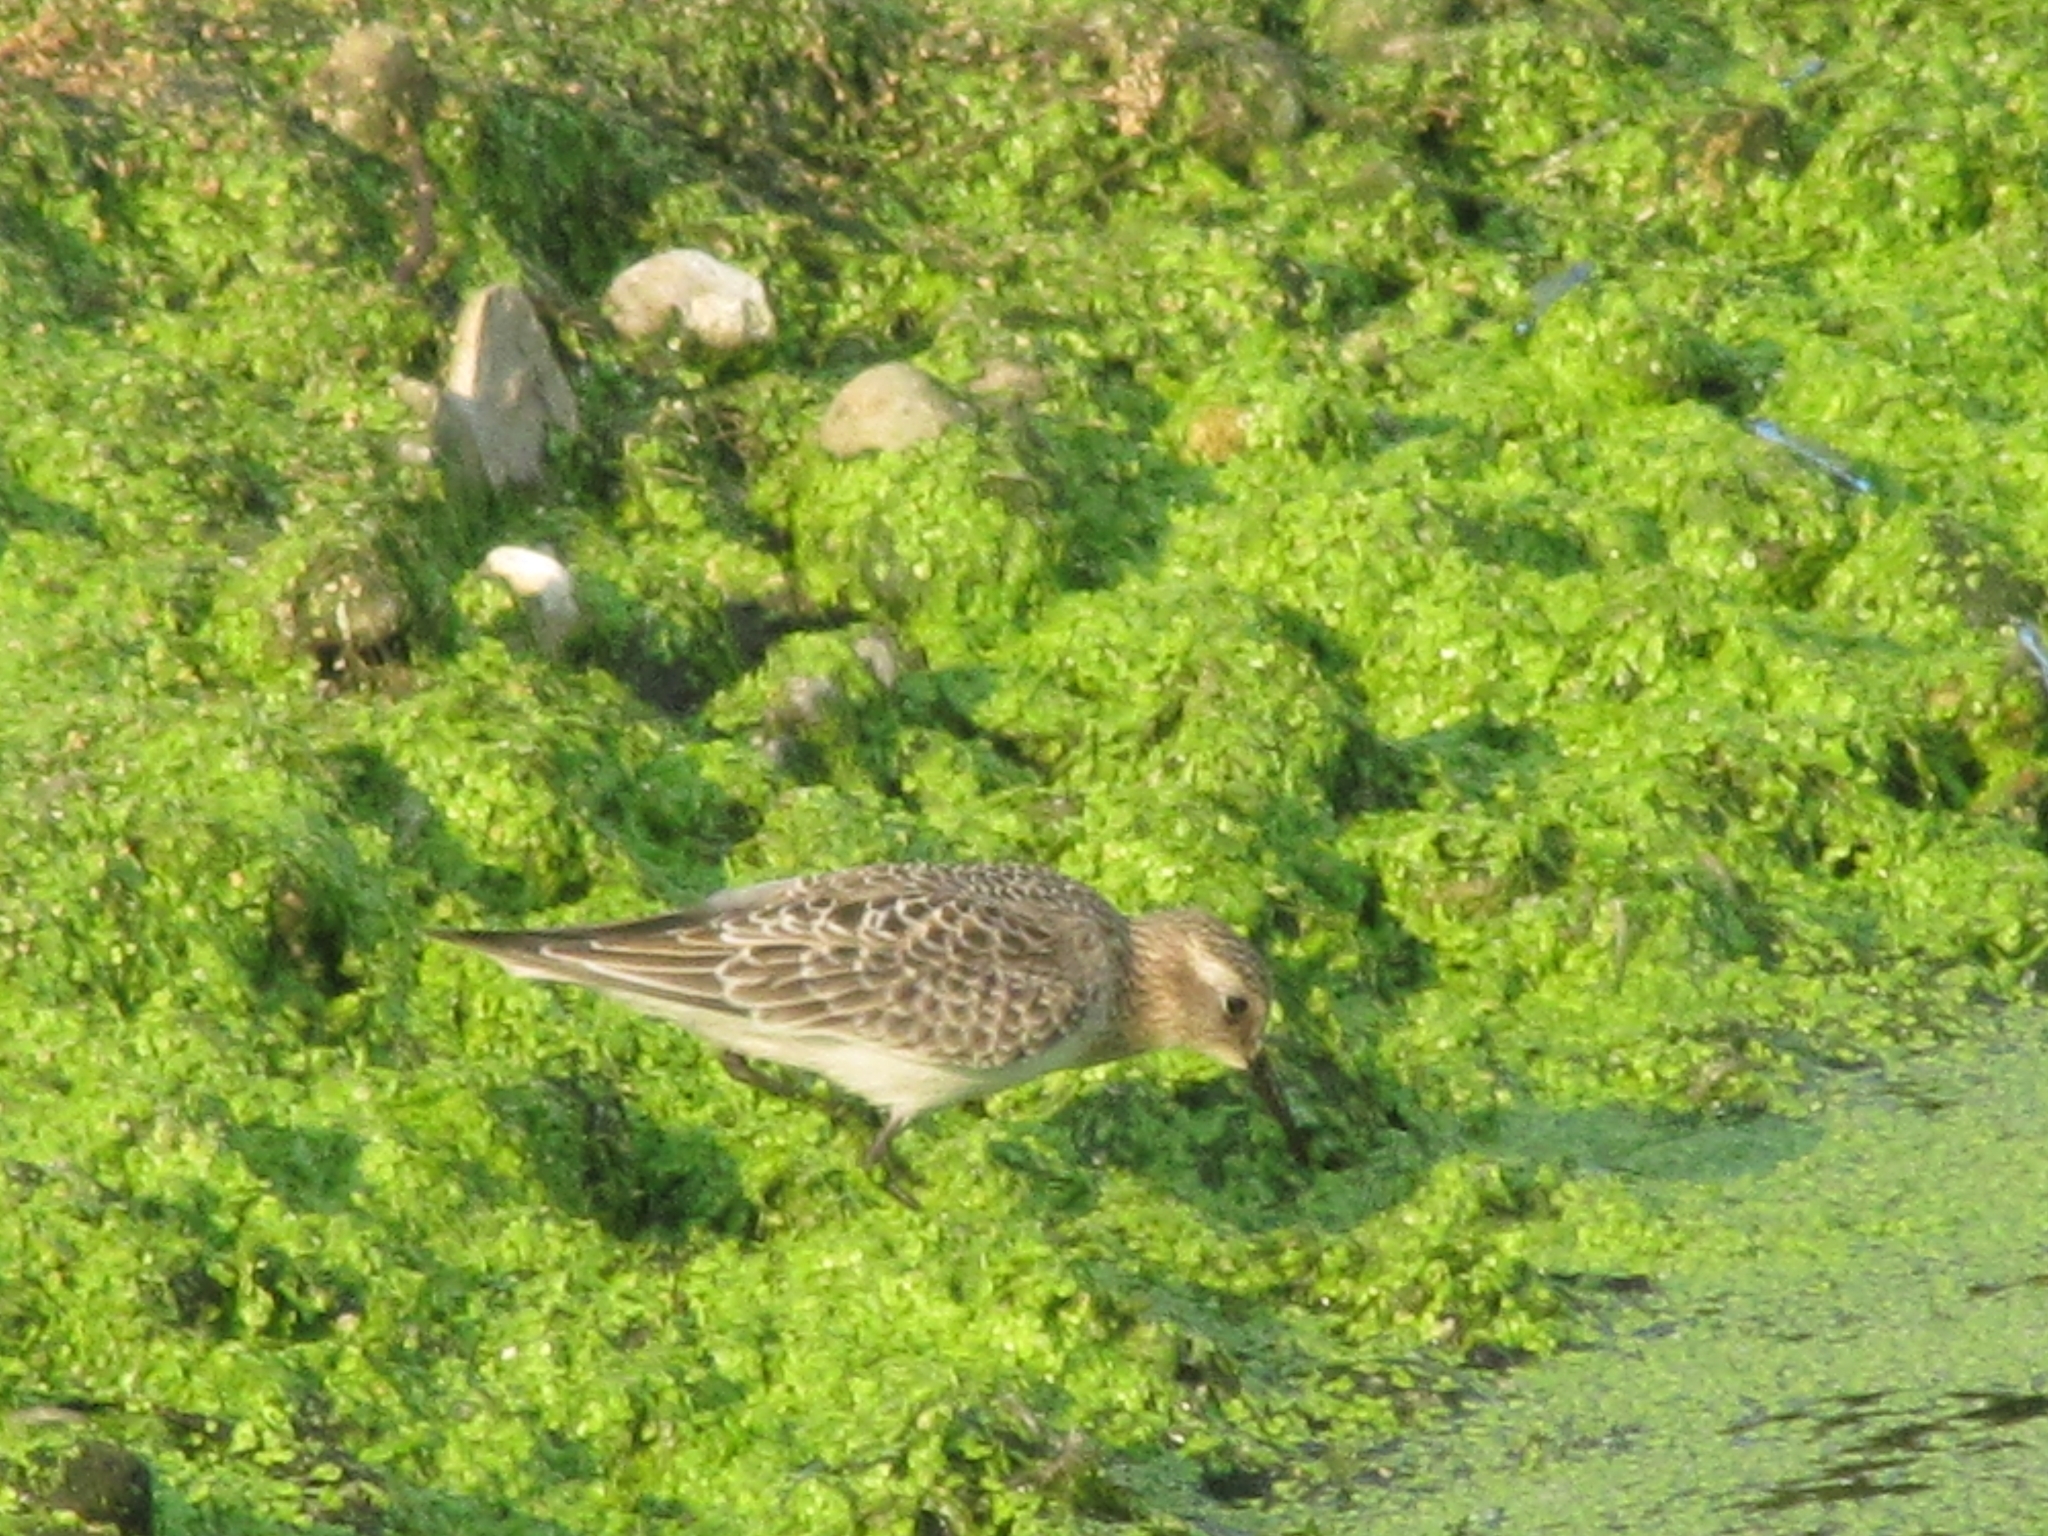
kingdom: Animalia
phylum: Chordata
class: Aves
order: Charadriiformes
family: Scolopacidae
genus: Calidris
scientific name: Calidris bairdii
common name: Baird's sandpiper
